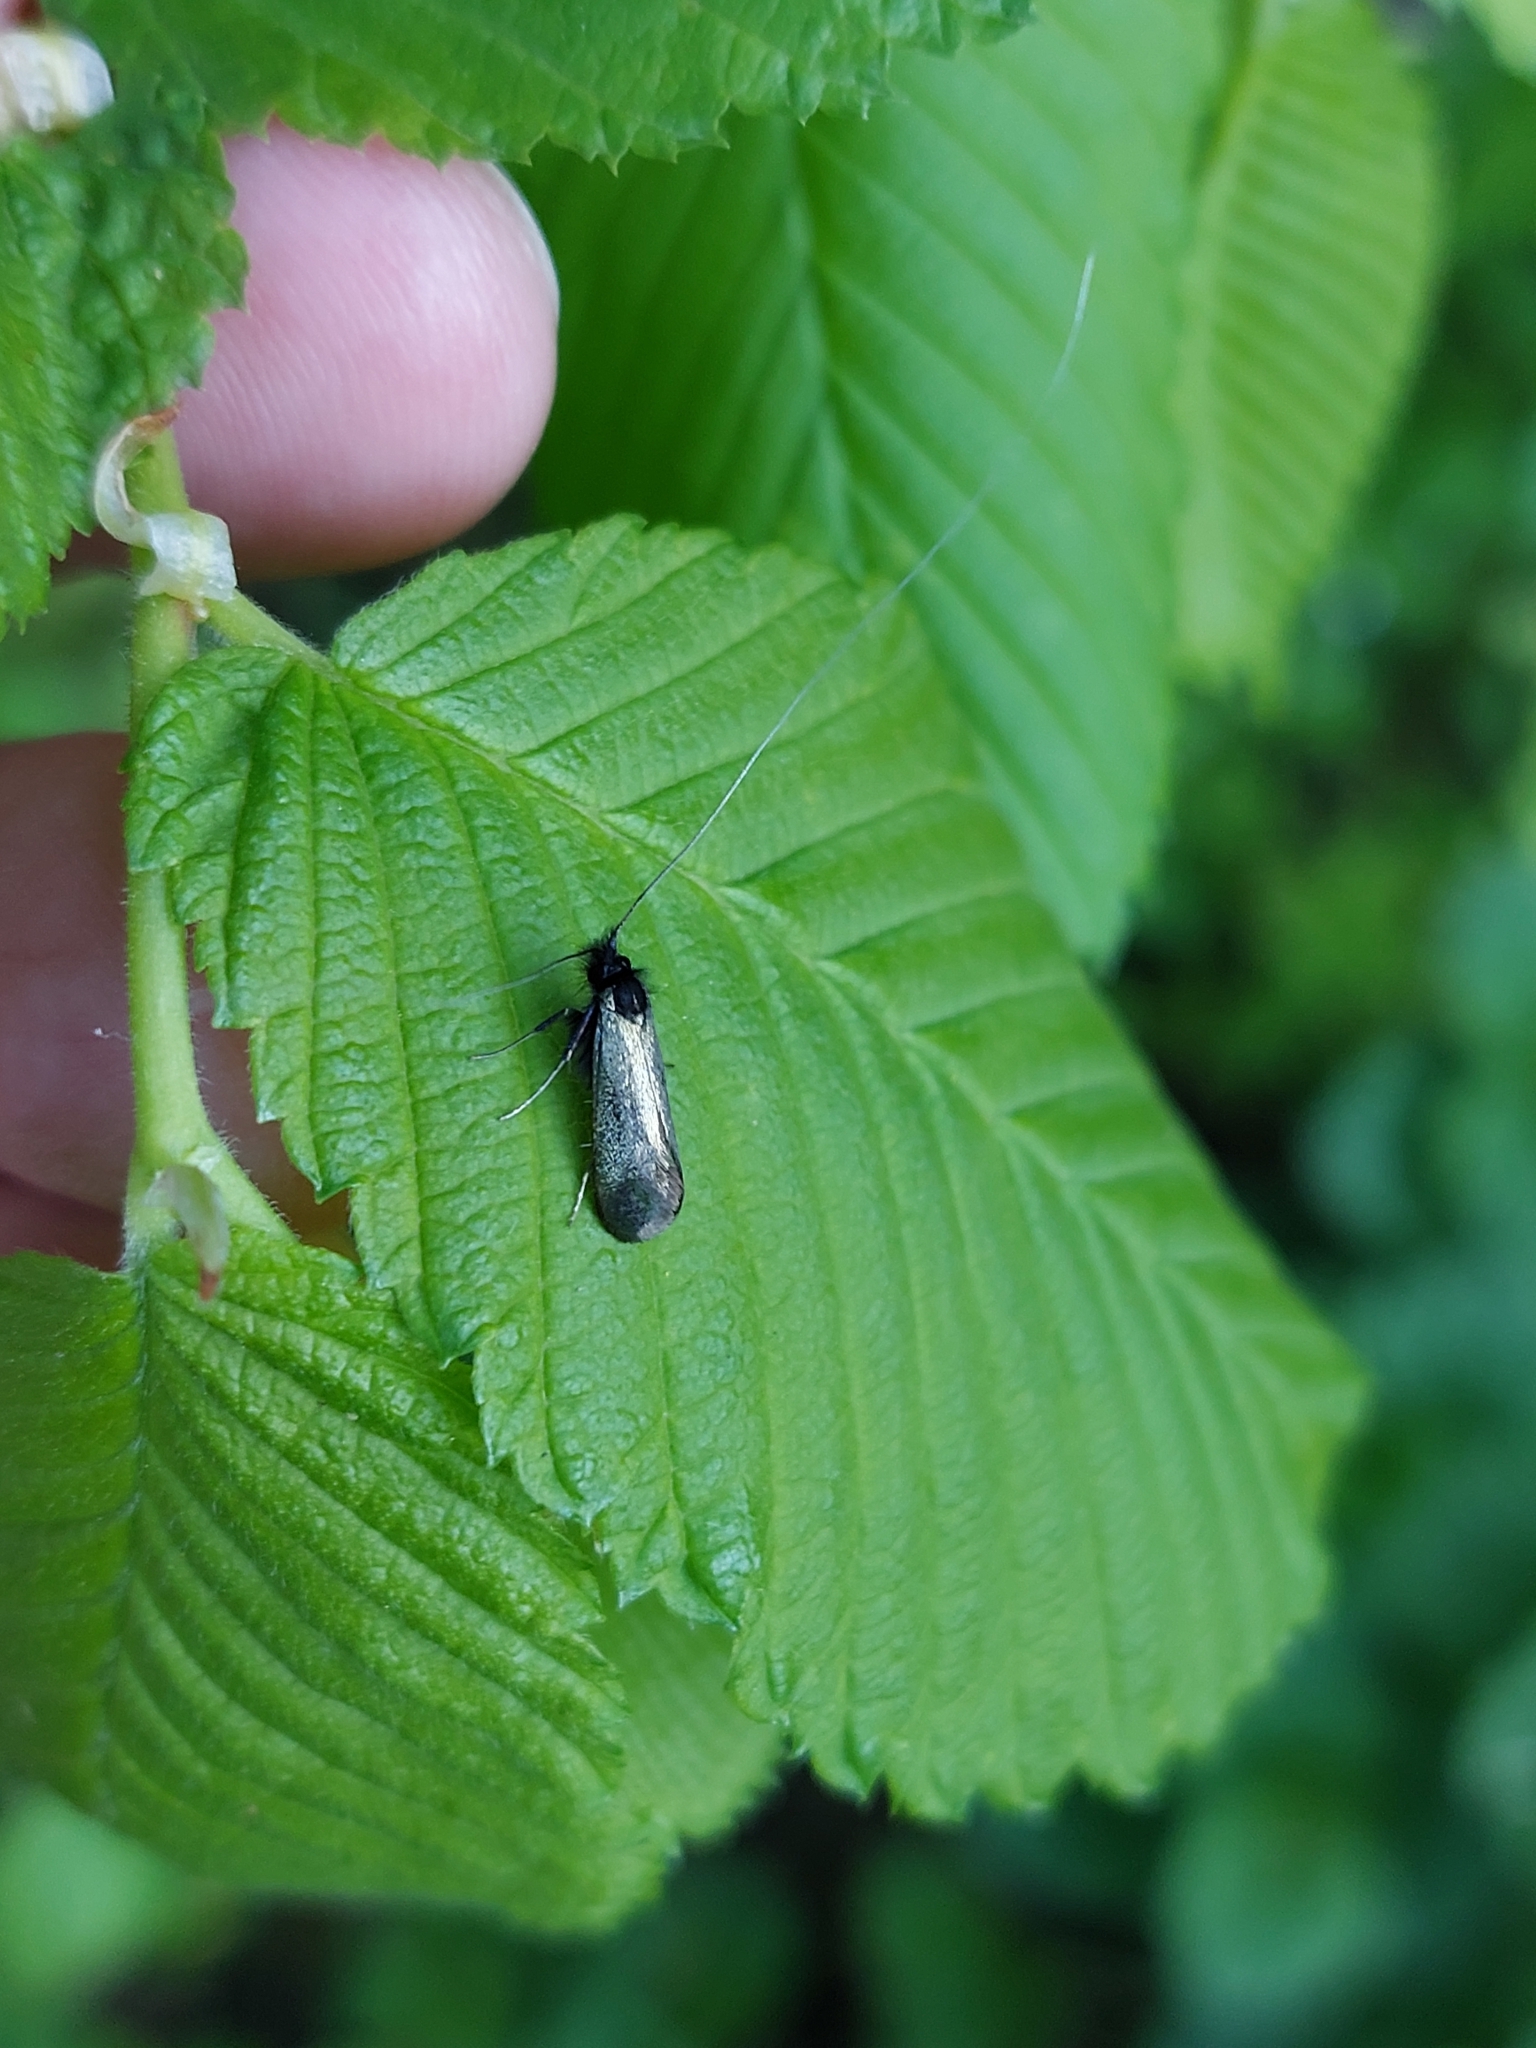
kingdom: Animalia
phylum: Arthropoda
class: Insecta
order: Lepidoptera
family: Adelidae
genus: Adela
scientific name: Adela viridella
